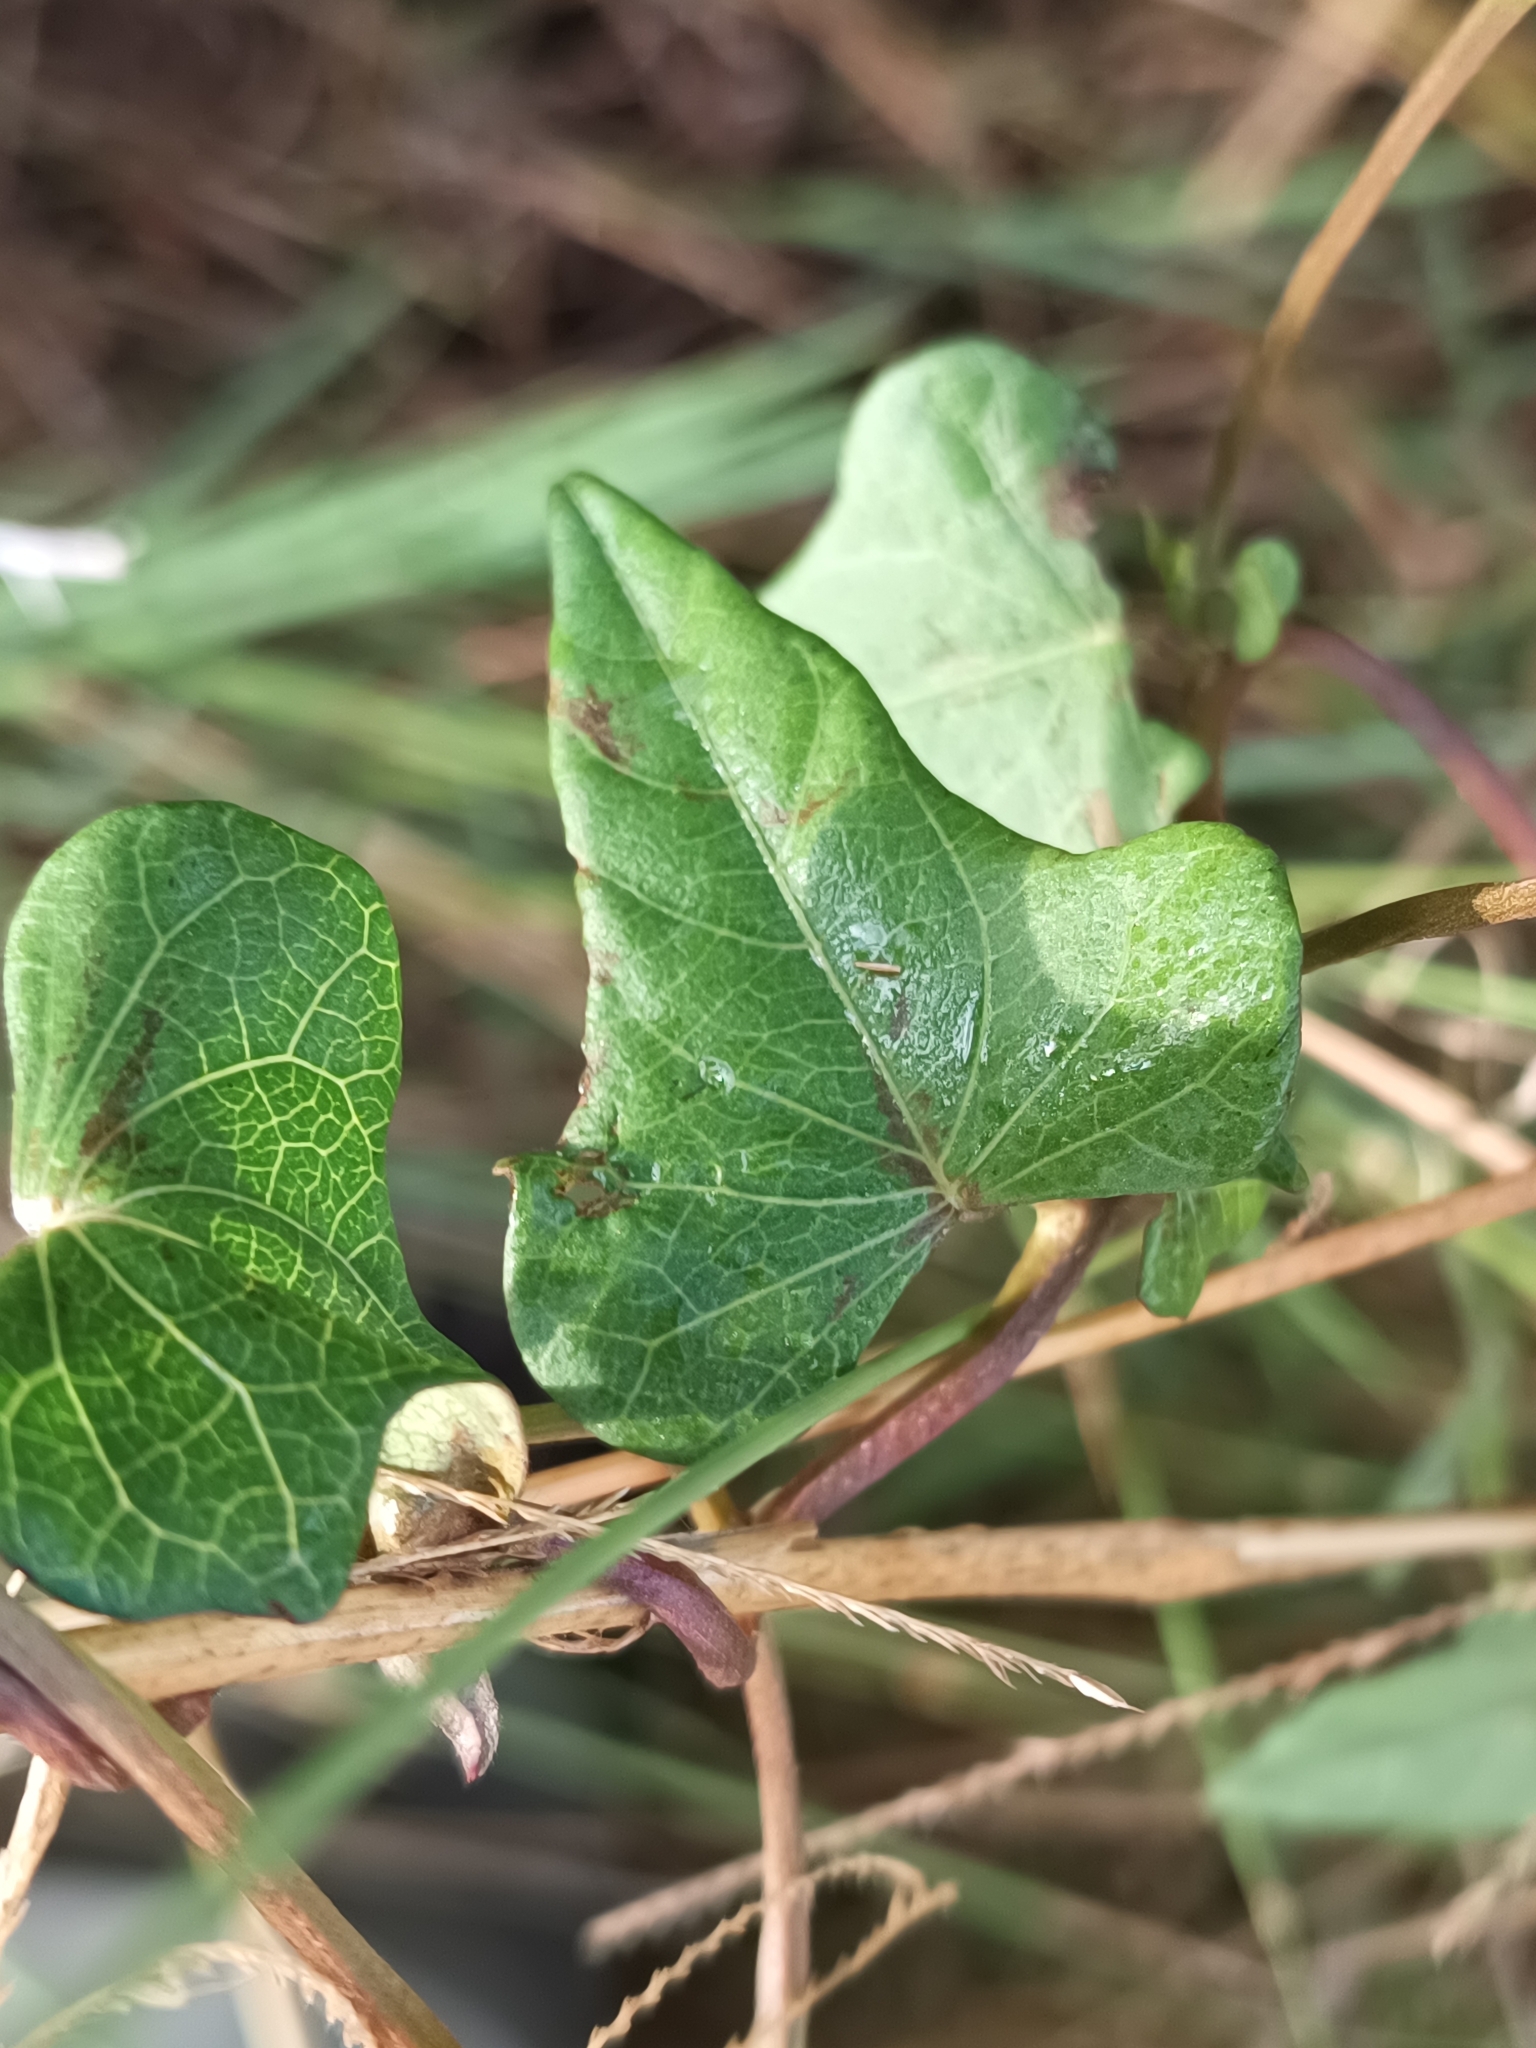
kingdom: Plantae
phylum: Tracheophyta
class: Magnoliopsida
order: Solanales
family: Convolvulaceae
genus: Ipomoea
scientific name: Ipomoea triloba
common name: Little-bell
